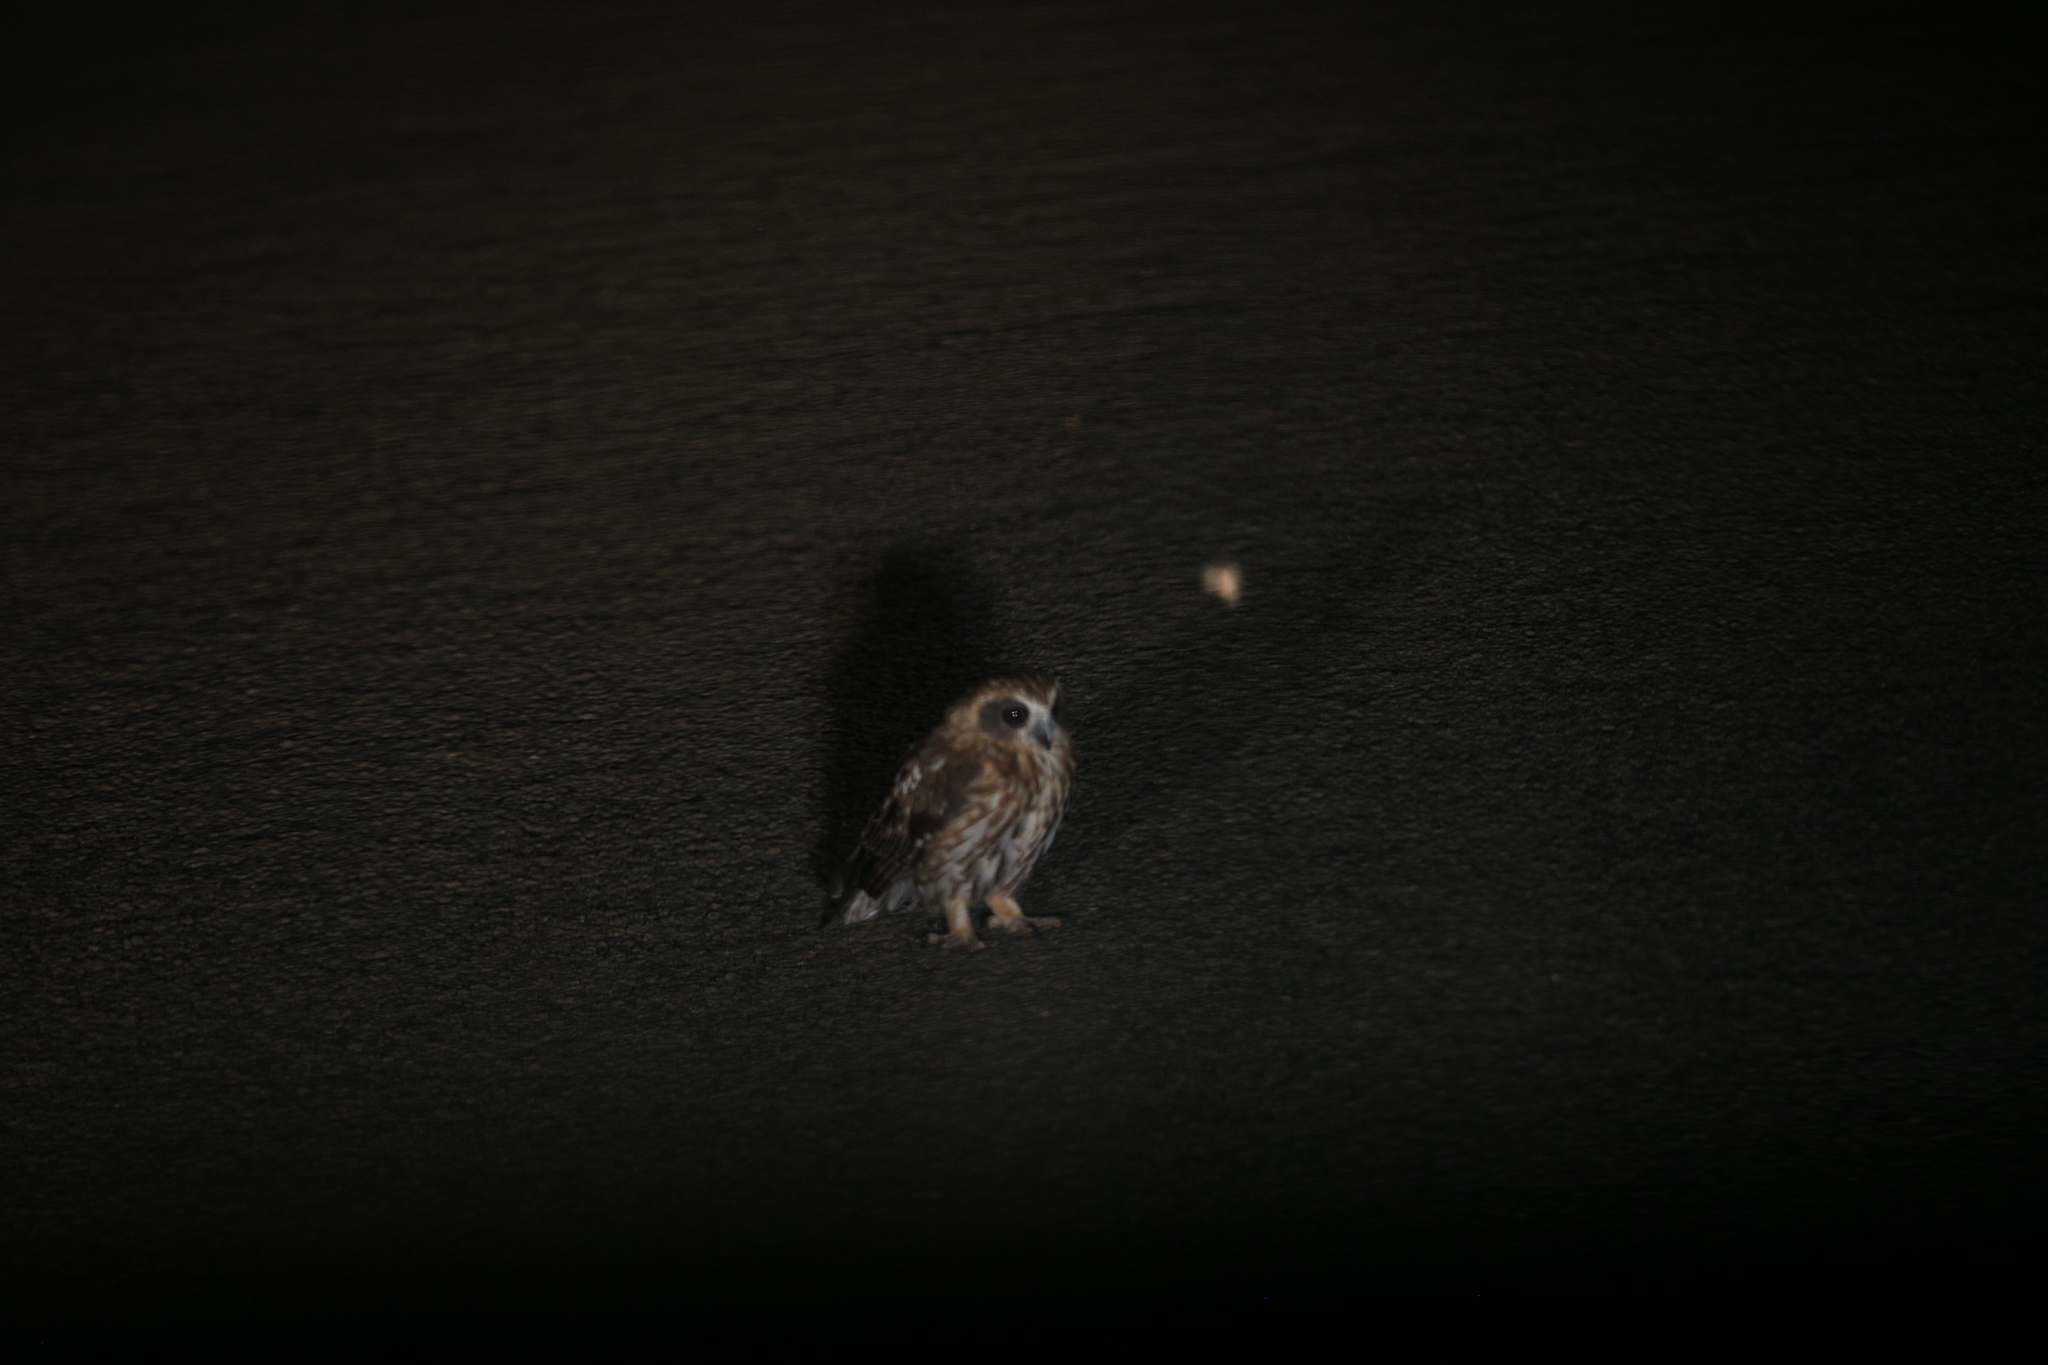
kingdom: Animalia
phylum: Chordata
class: Aves
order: Strigiformes
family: Strigidae
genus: Ninox
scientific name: Ninox boobook
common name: Southern boobook
